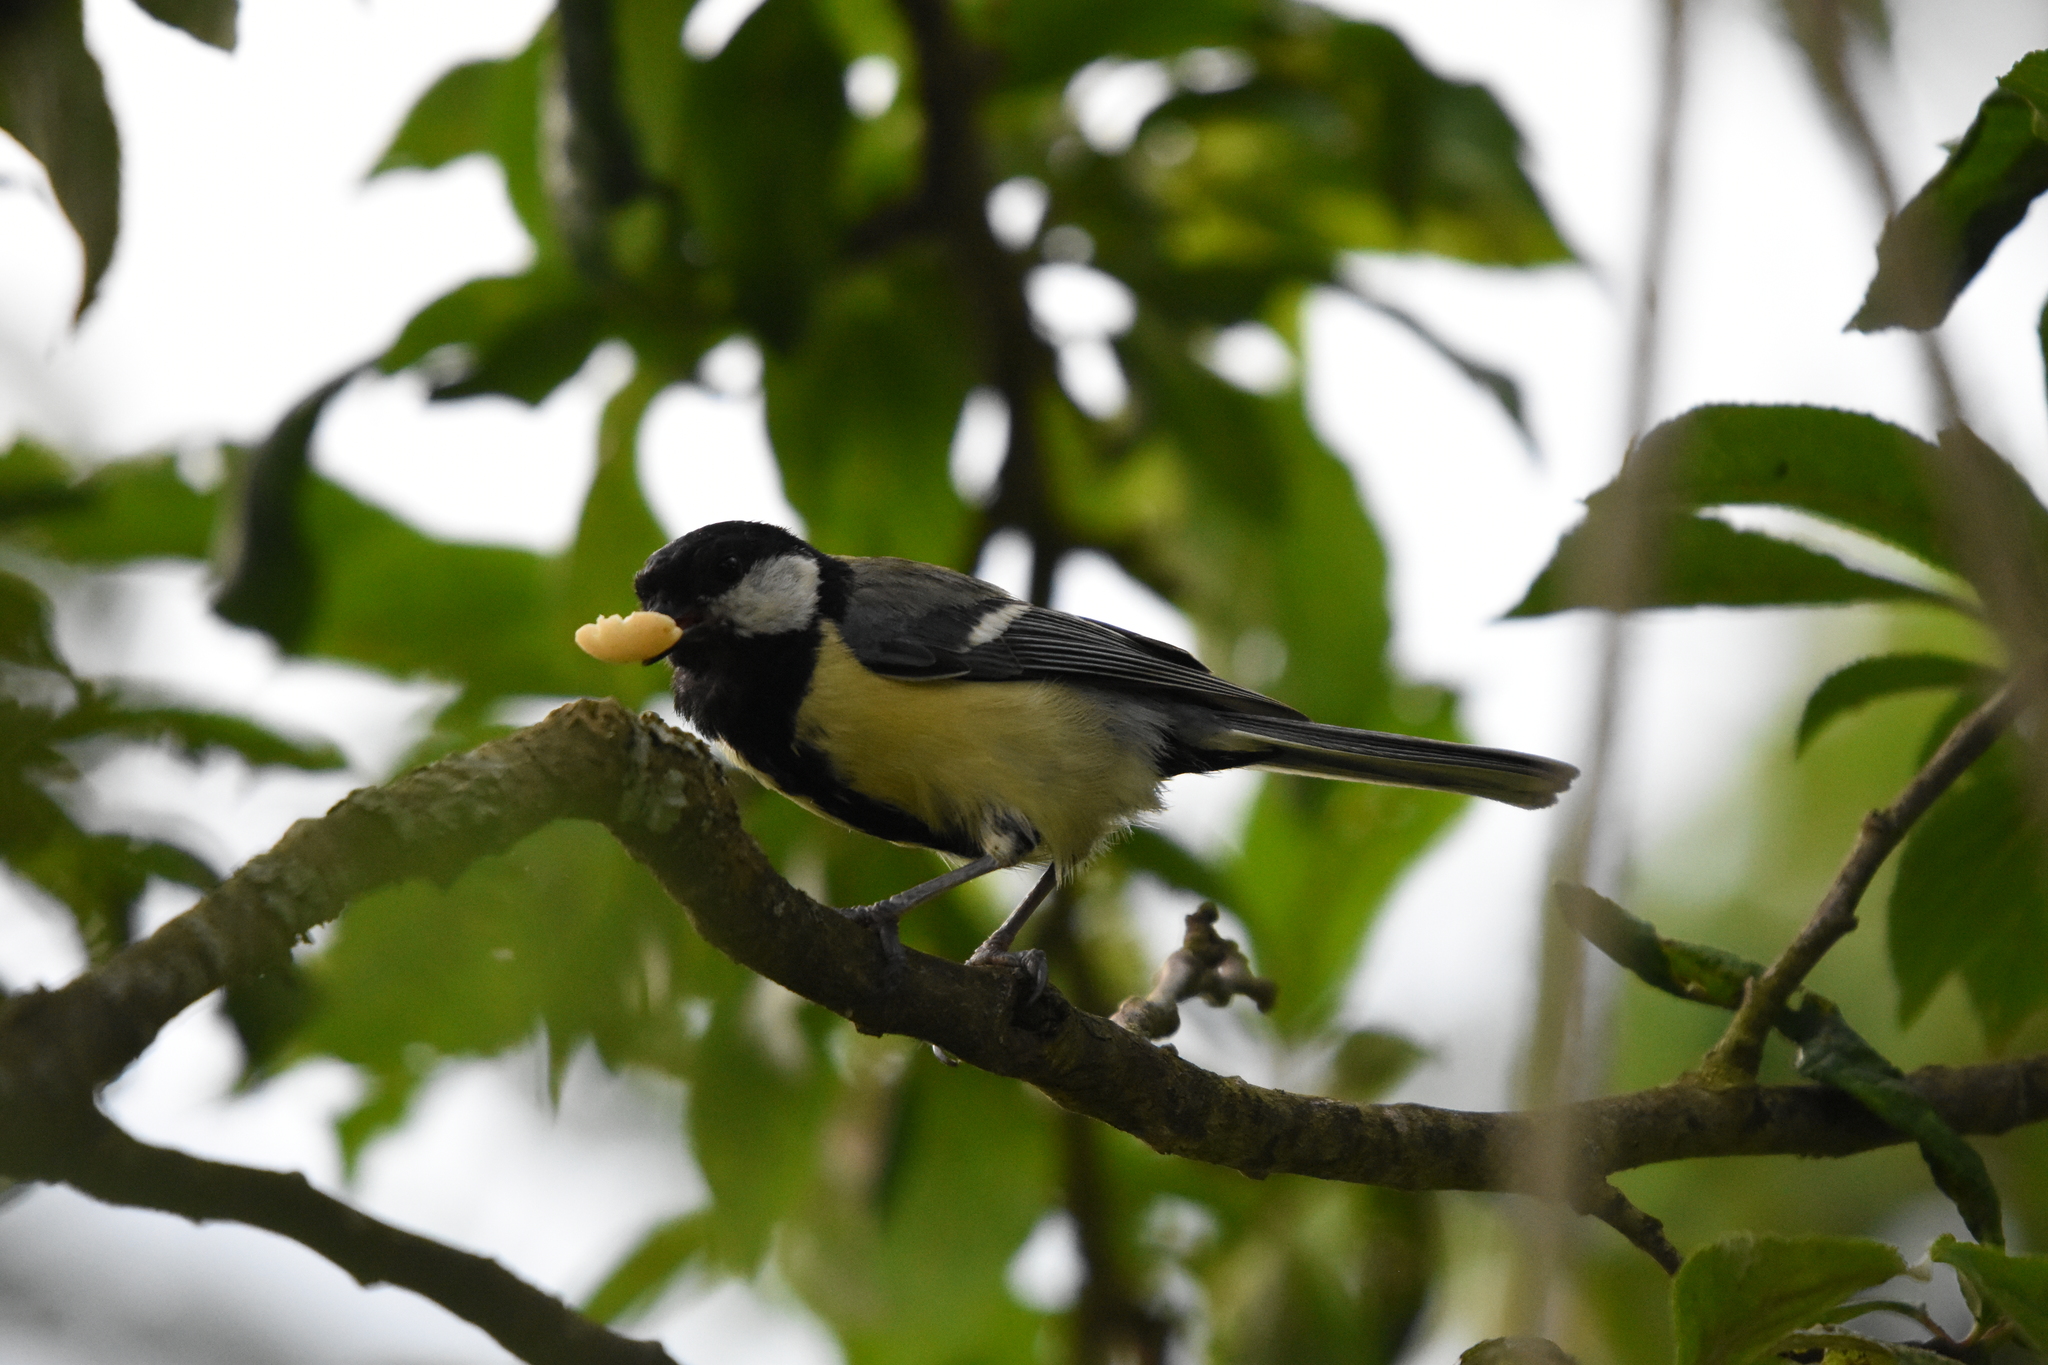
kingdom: Animalia
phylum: Chordata
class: Aves
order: Passeriformes
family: Paridae
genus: Parus
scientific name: Parus major
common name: Great tit
